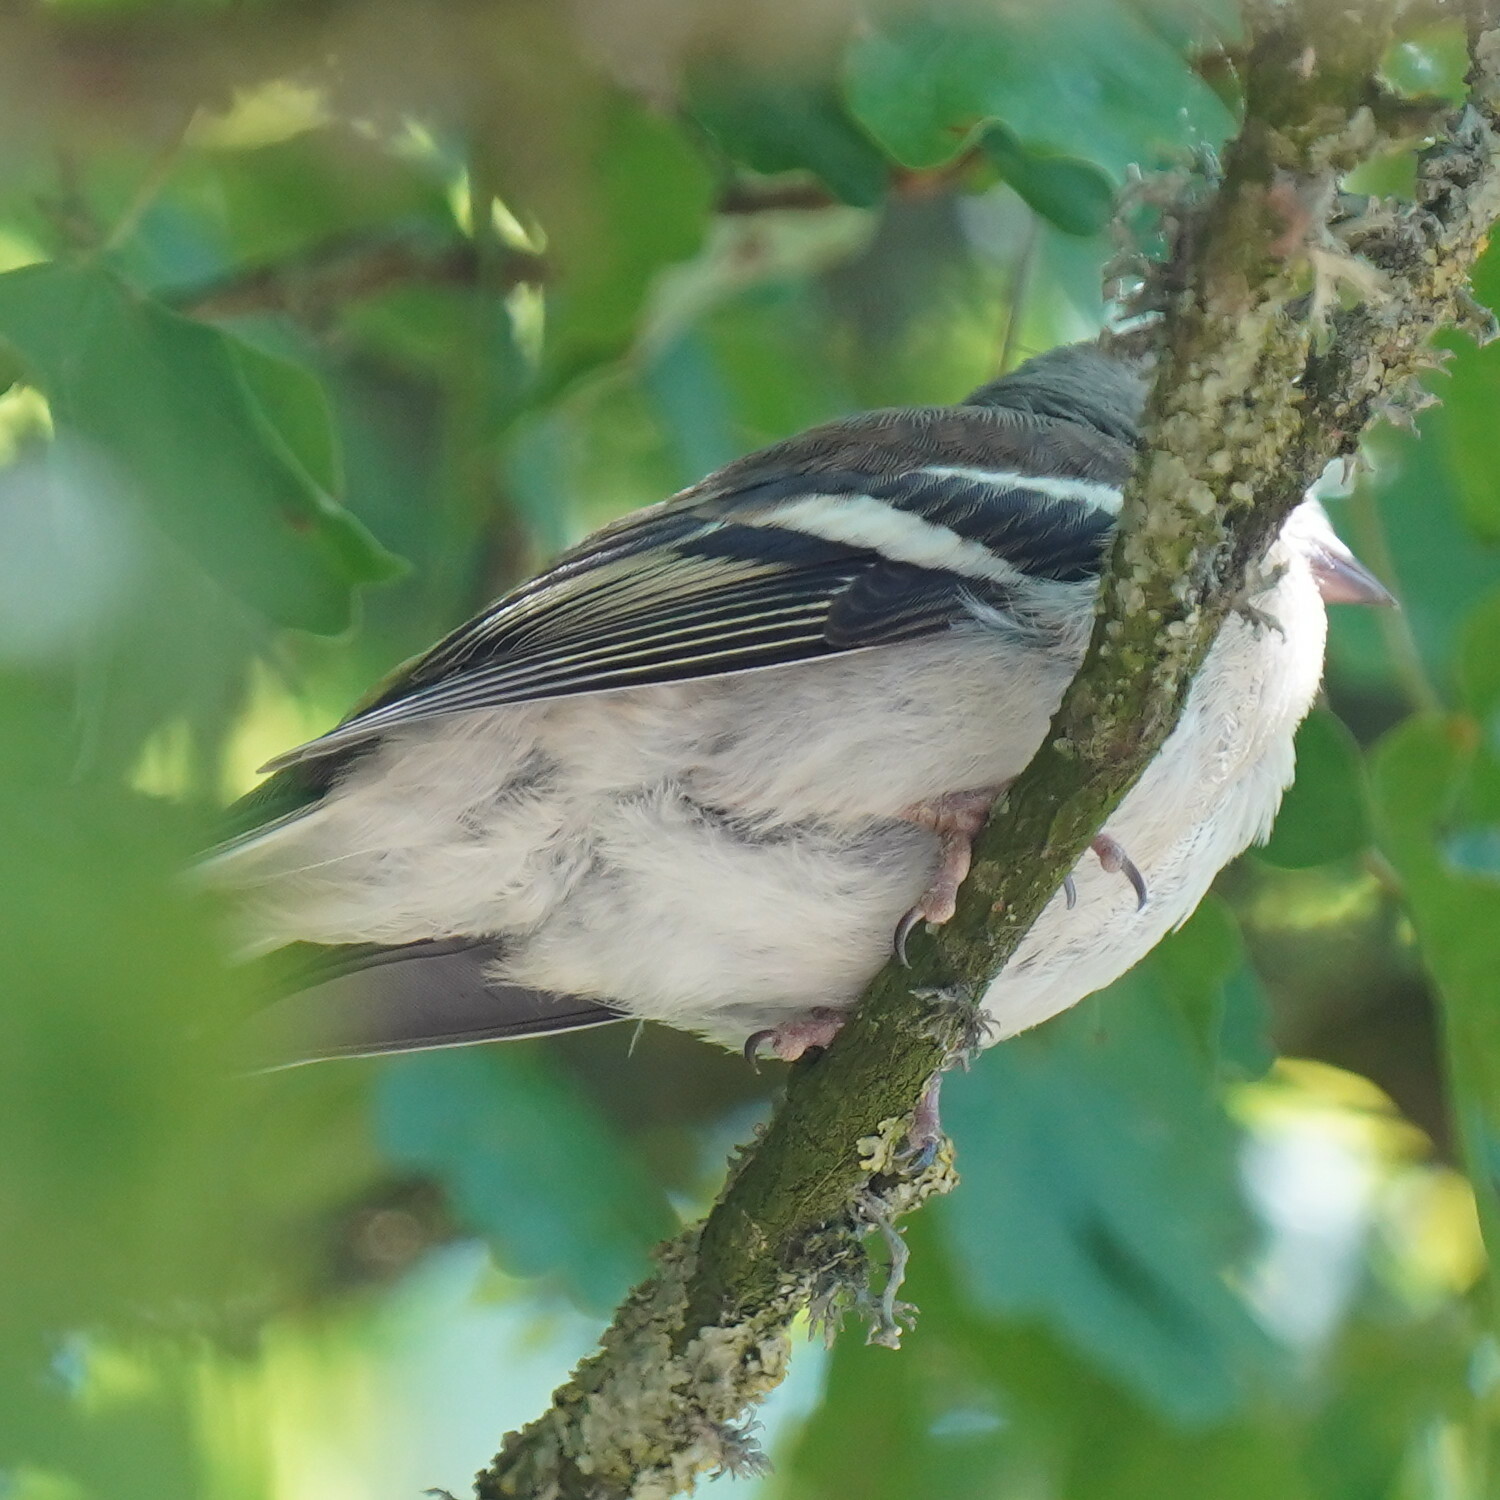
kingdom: Animalia
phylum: Chordata
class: Aves
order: Passeriformes
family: Fringillidae
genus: Fringilla
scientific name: Fringilla coelebs
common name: Common chaffinch
